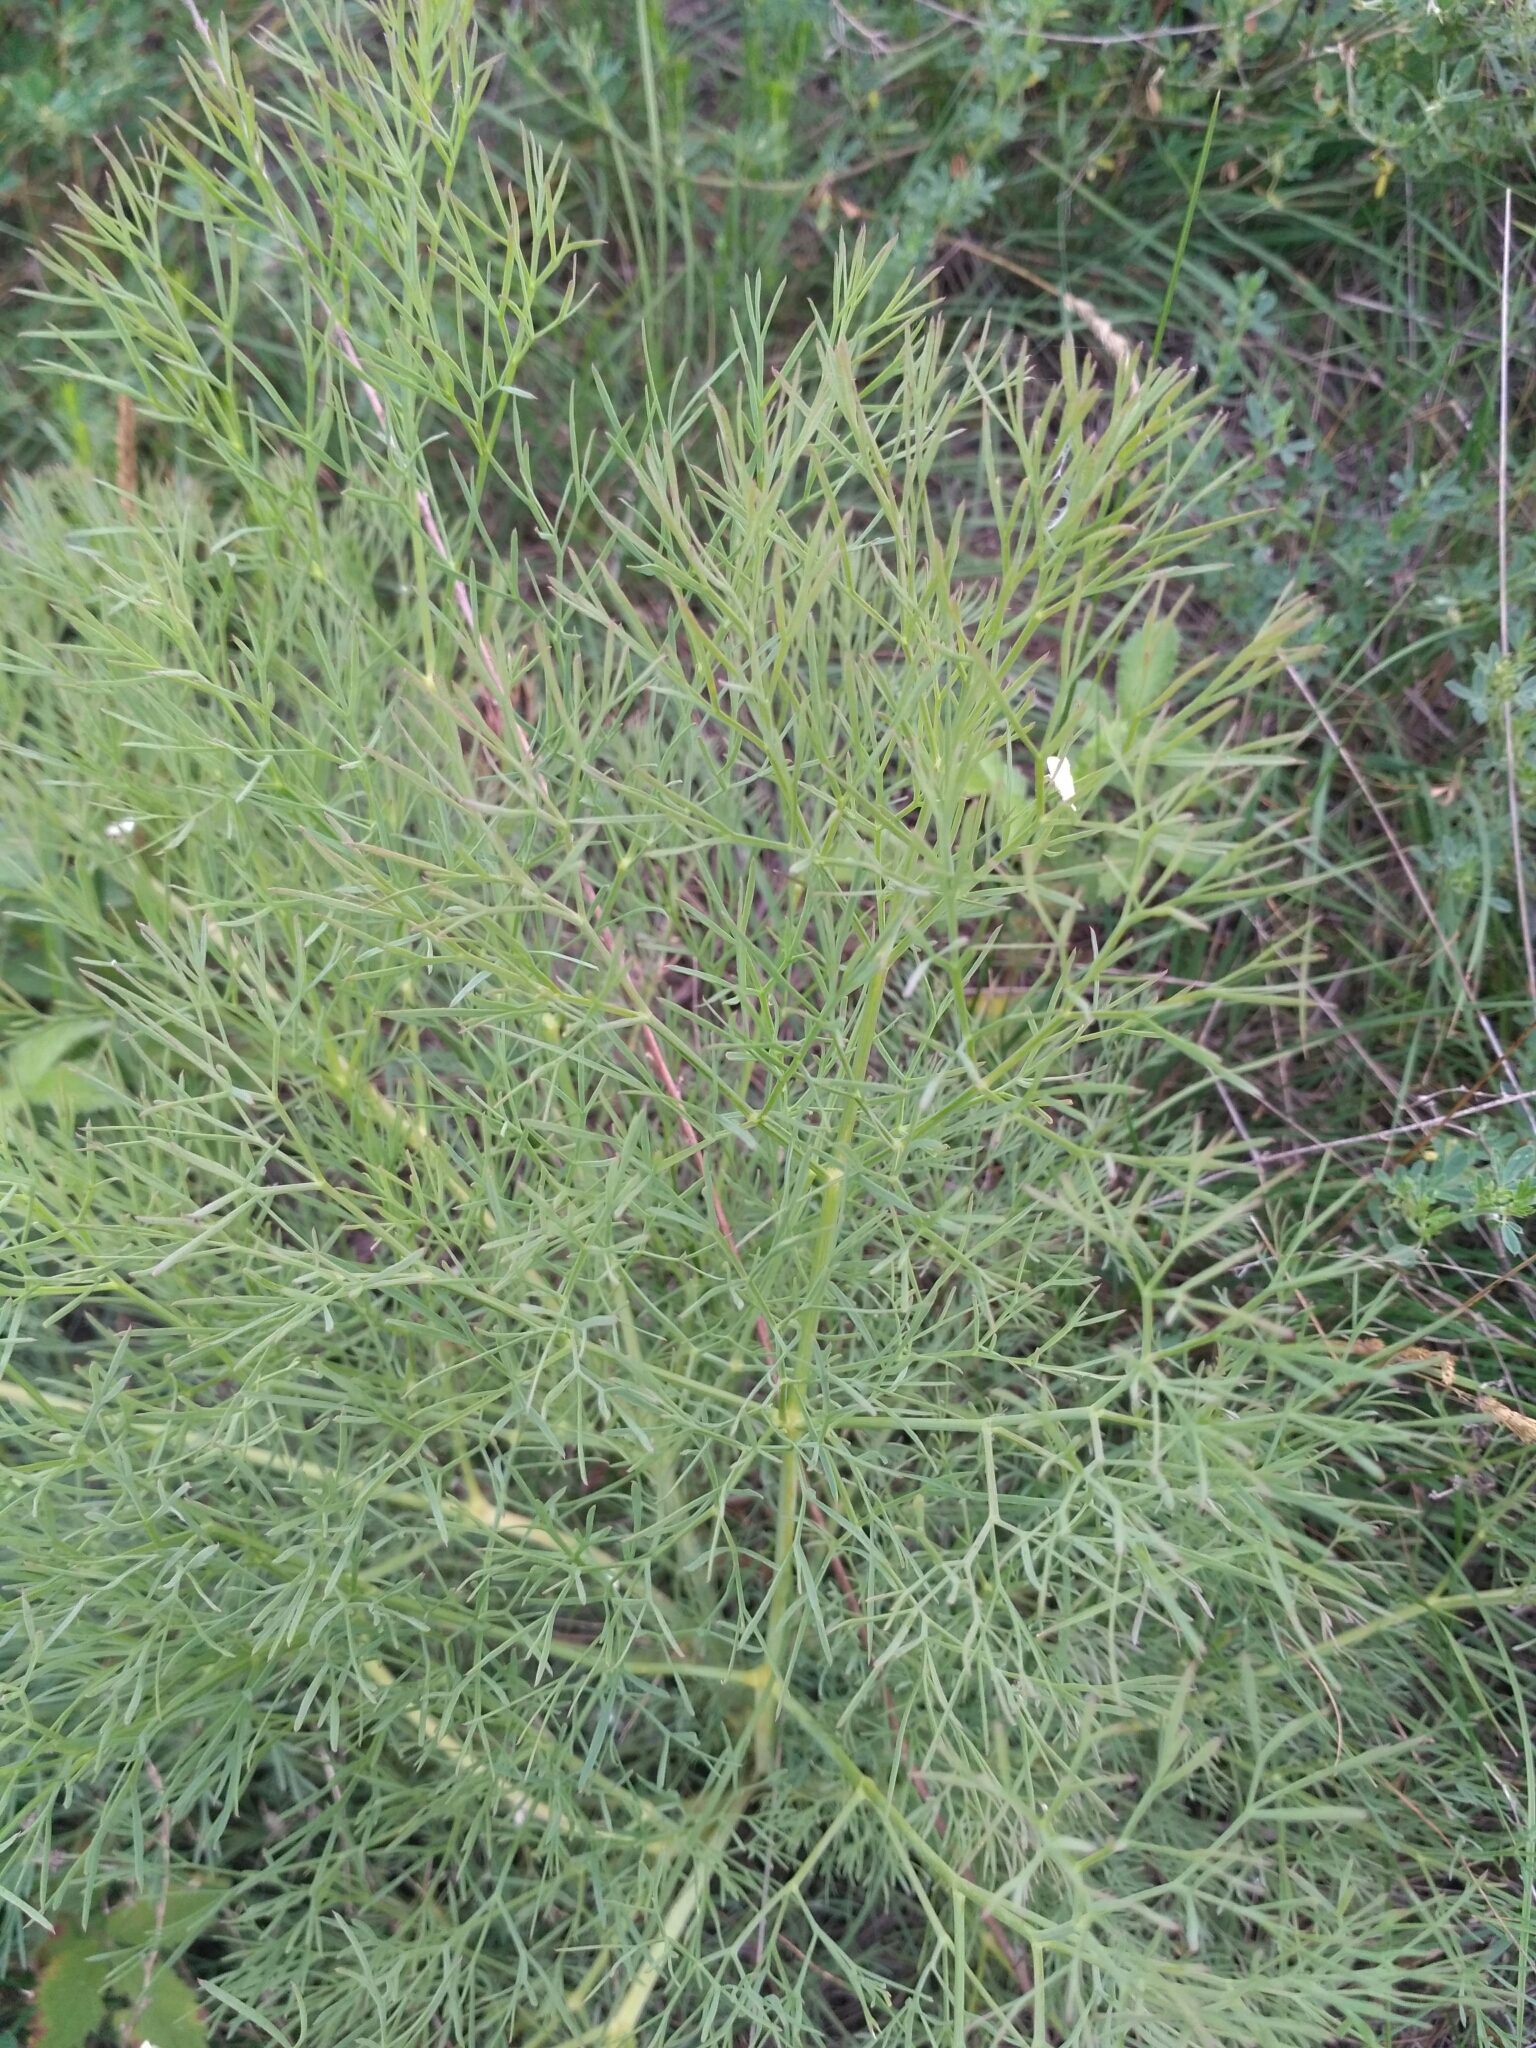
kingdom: Plantae
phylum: Tracheophyta
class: Magnoliopsida
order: Apiales
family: Apiaceae
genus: Seseli
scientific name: Seseli arenarium
